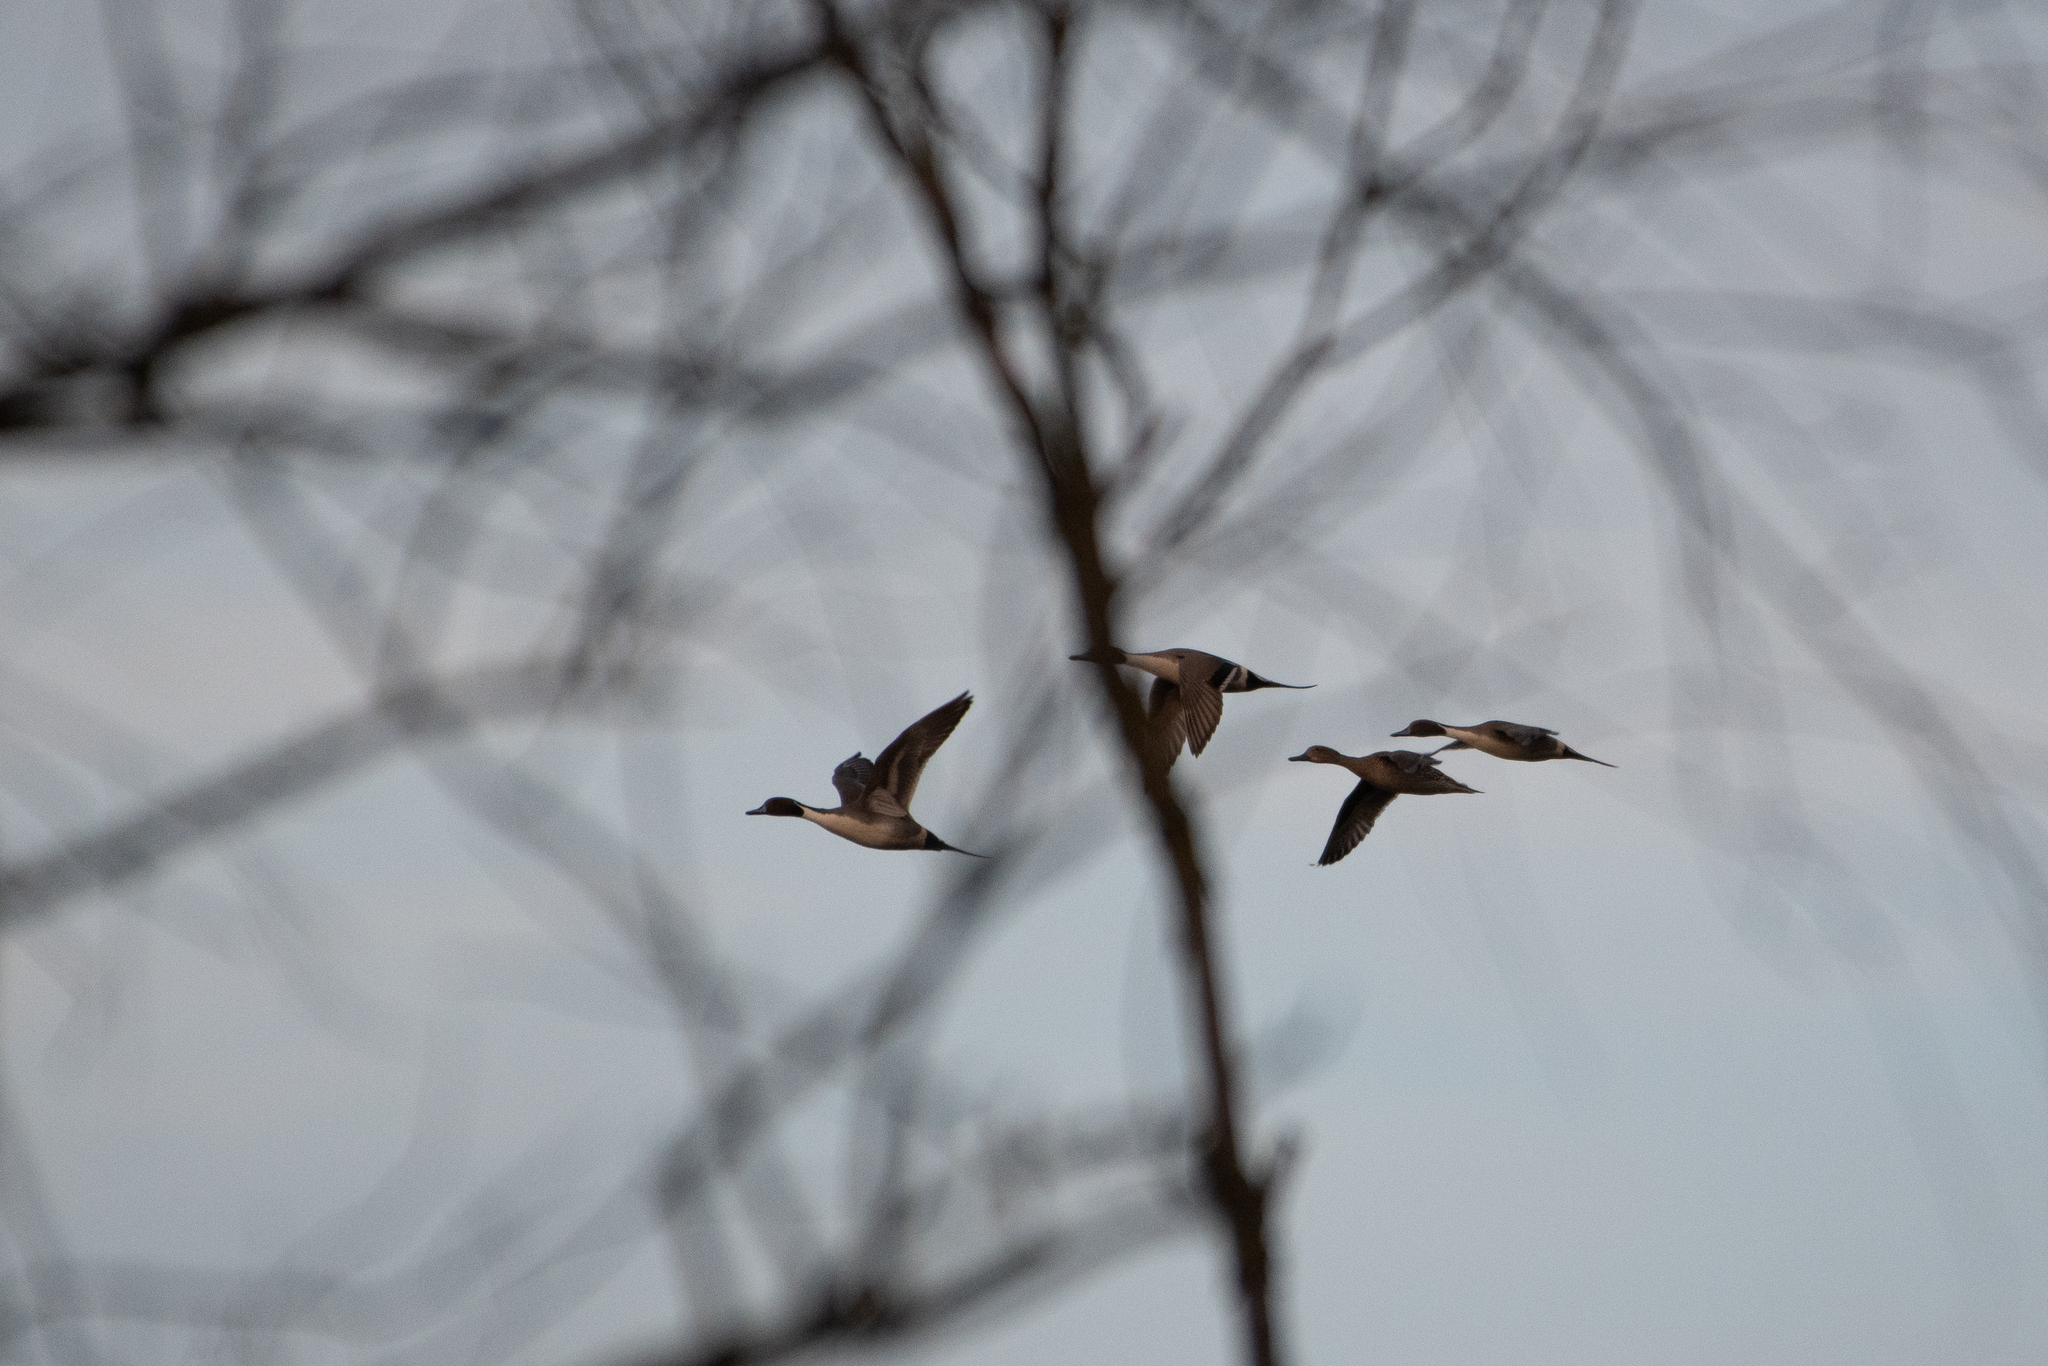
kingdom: Animalia
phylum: Chordata
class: Aves
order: Anseriformes
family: Anatidae
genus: Anas
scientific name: Anas acuta
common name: Northern pintail
